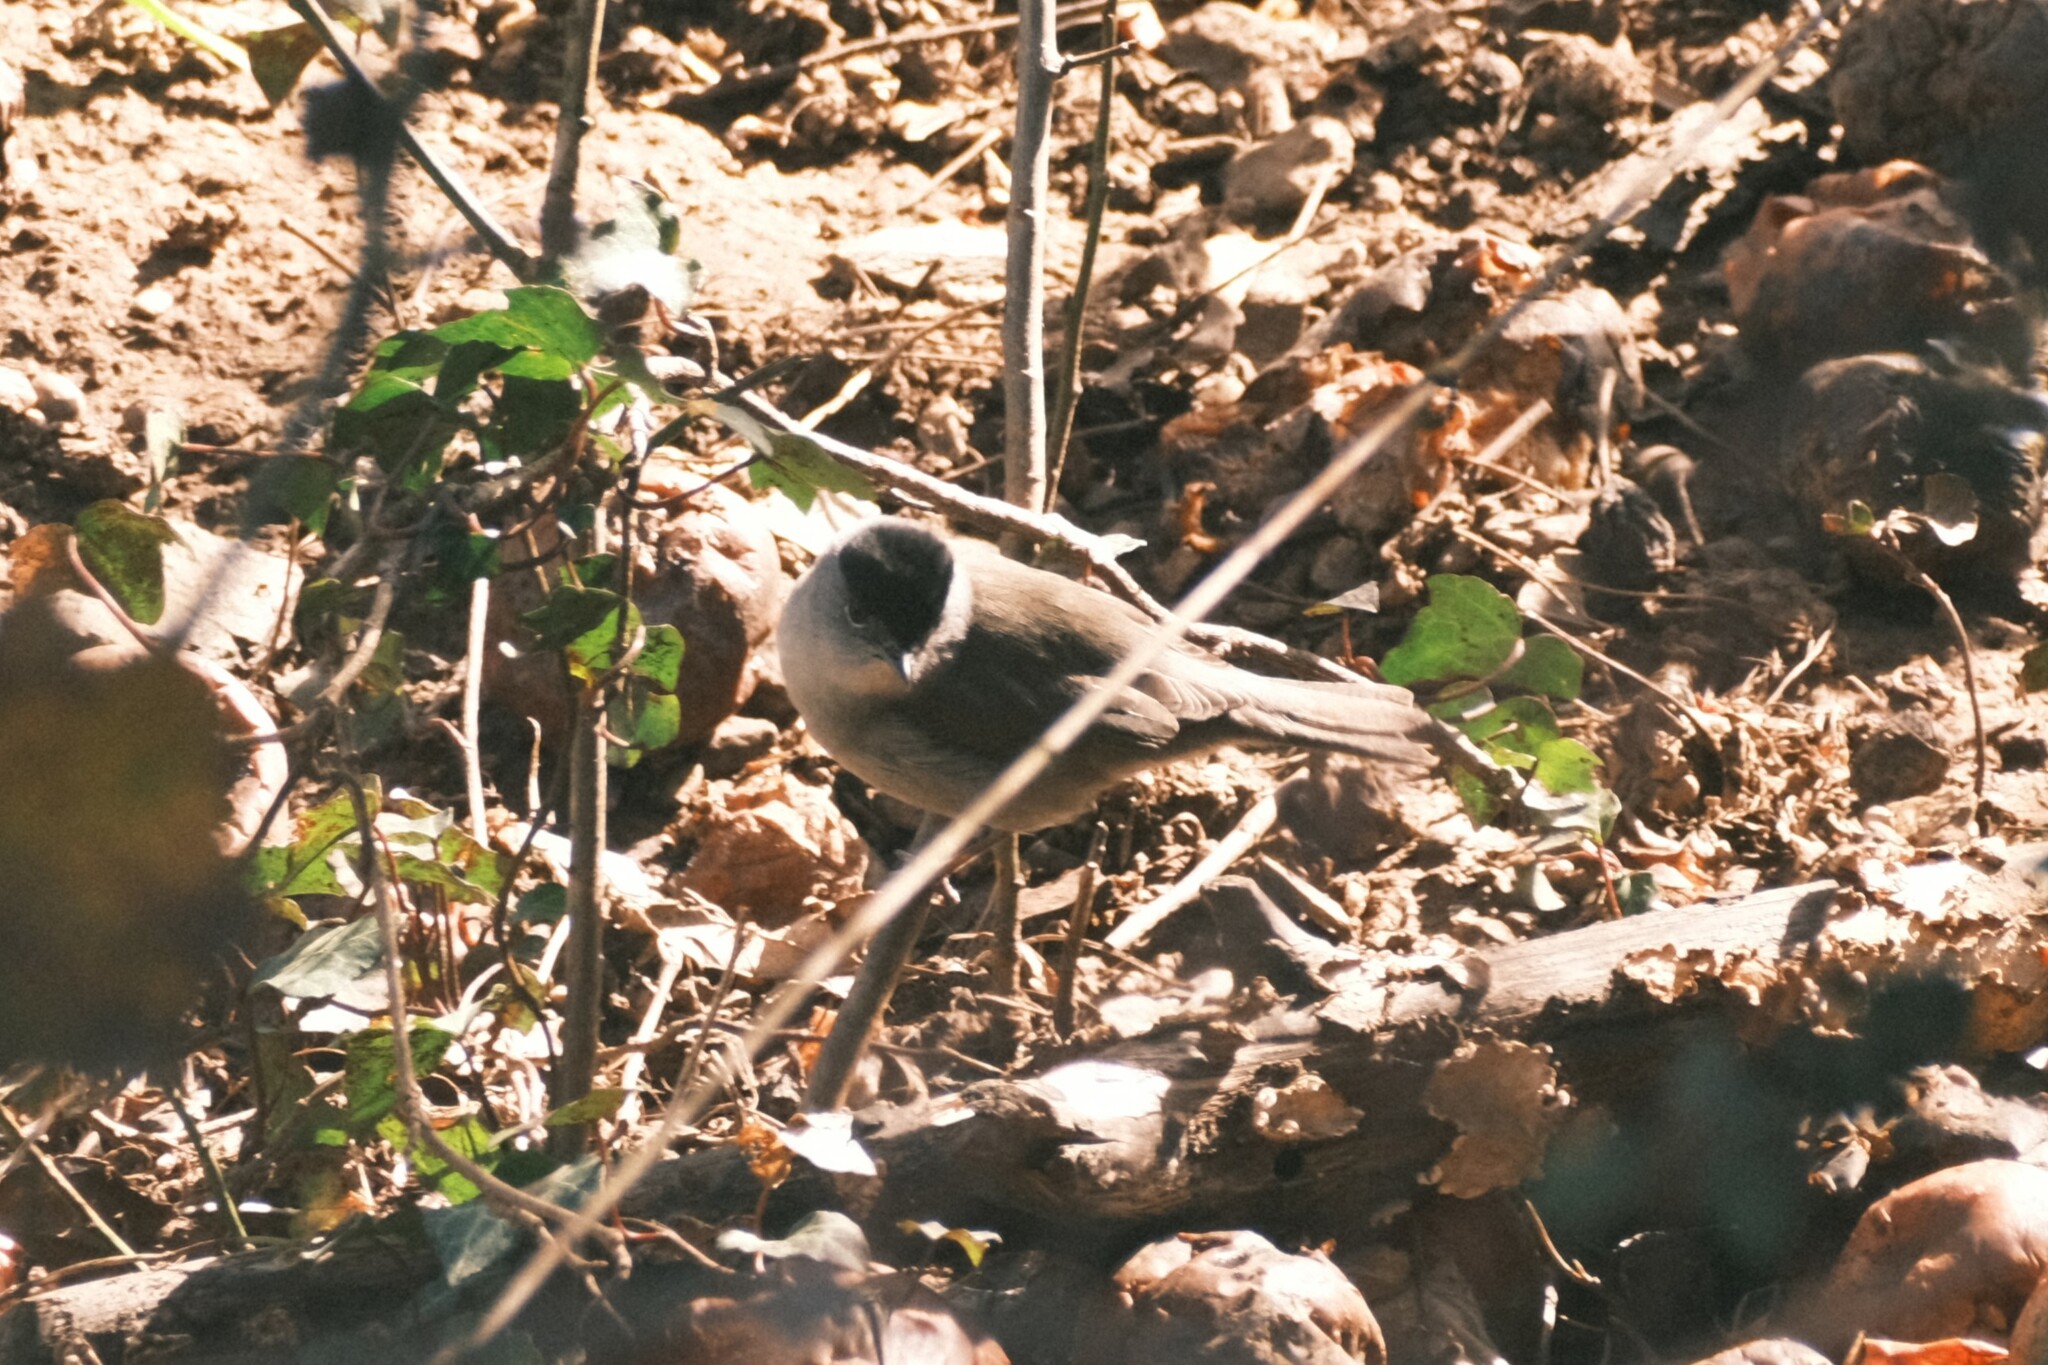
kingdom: Animalia
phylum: Chordata
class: Aves
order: Passeriformes
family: Sylviidae
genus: Sylvia
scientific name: Sylvia atricapilla
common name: Eurasian blackcap
